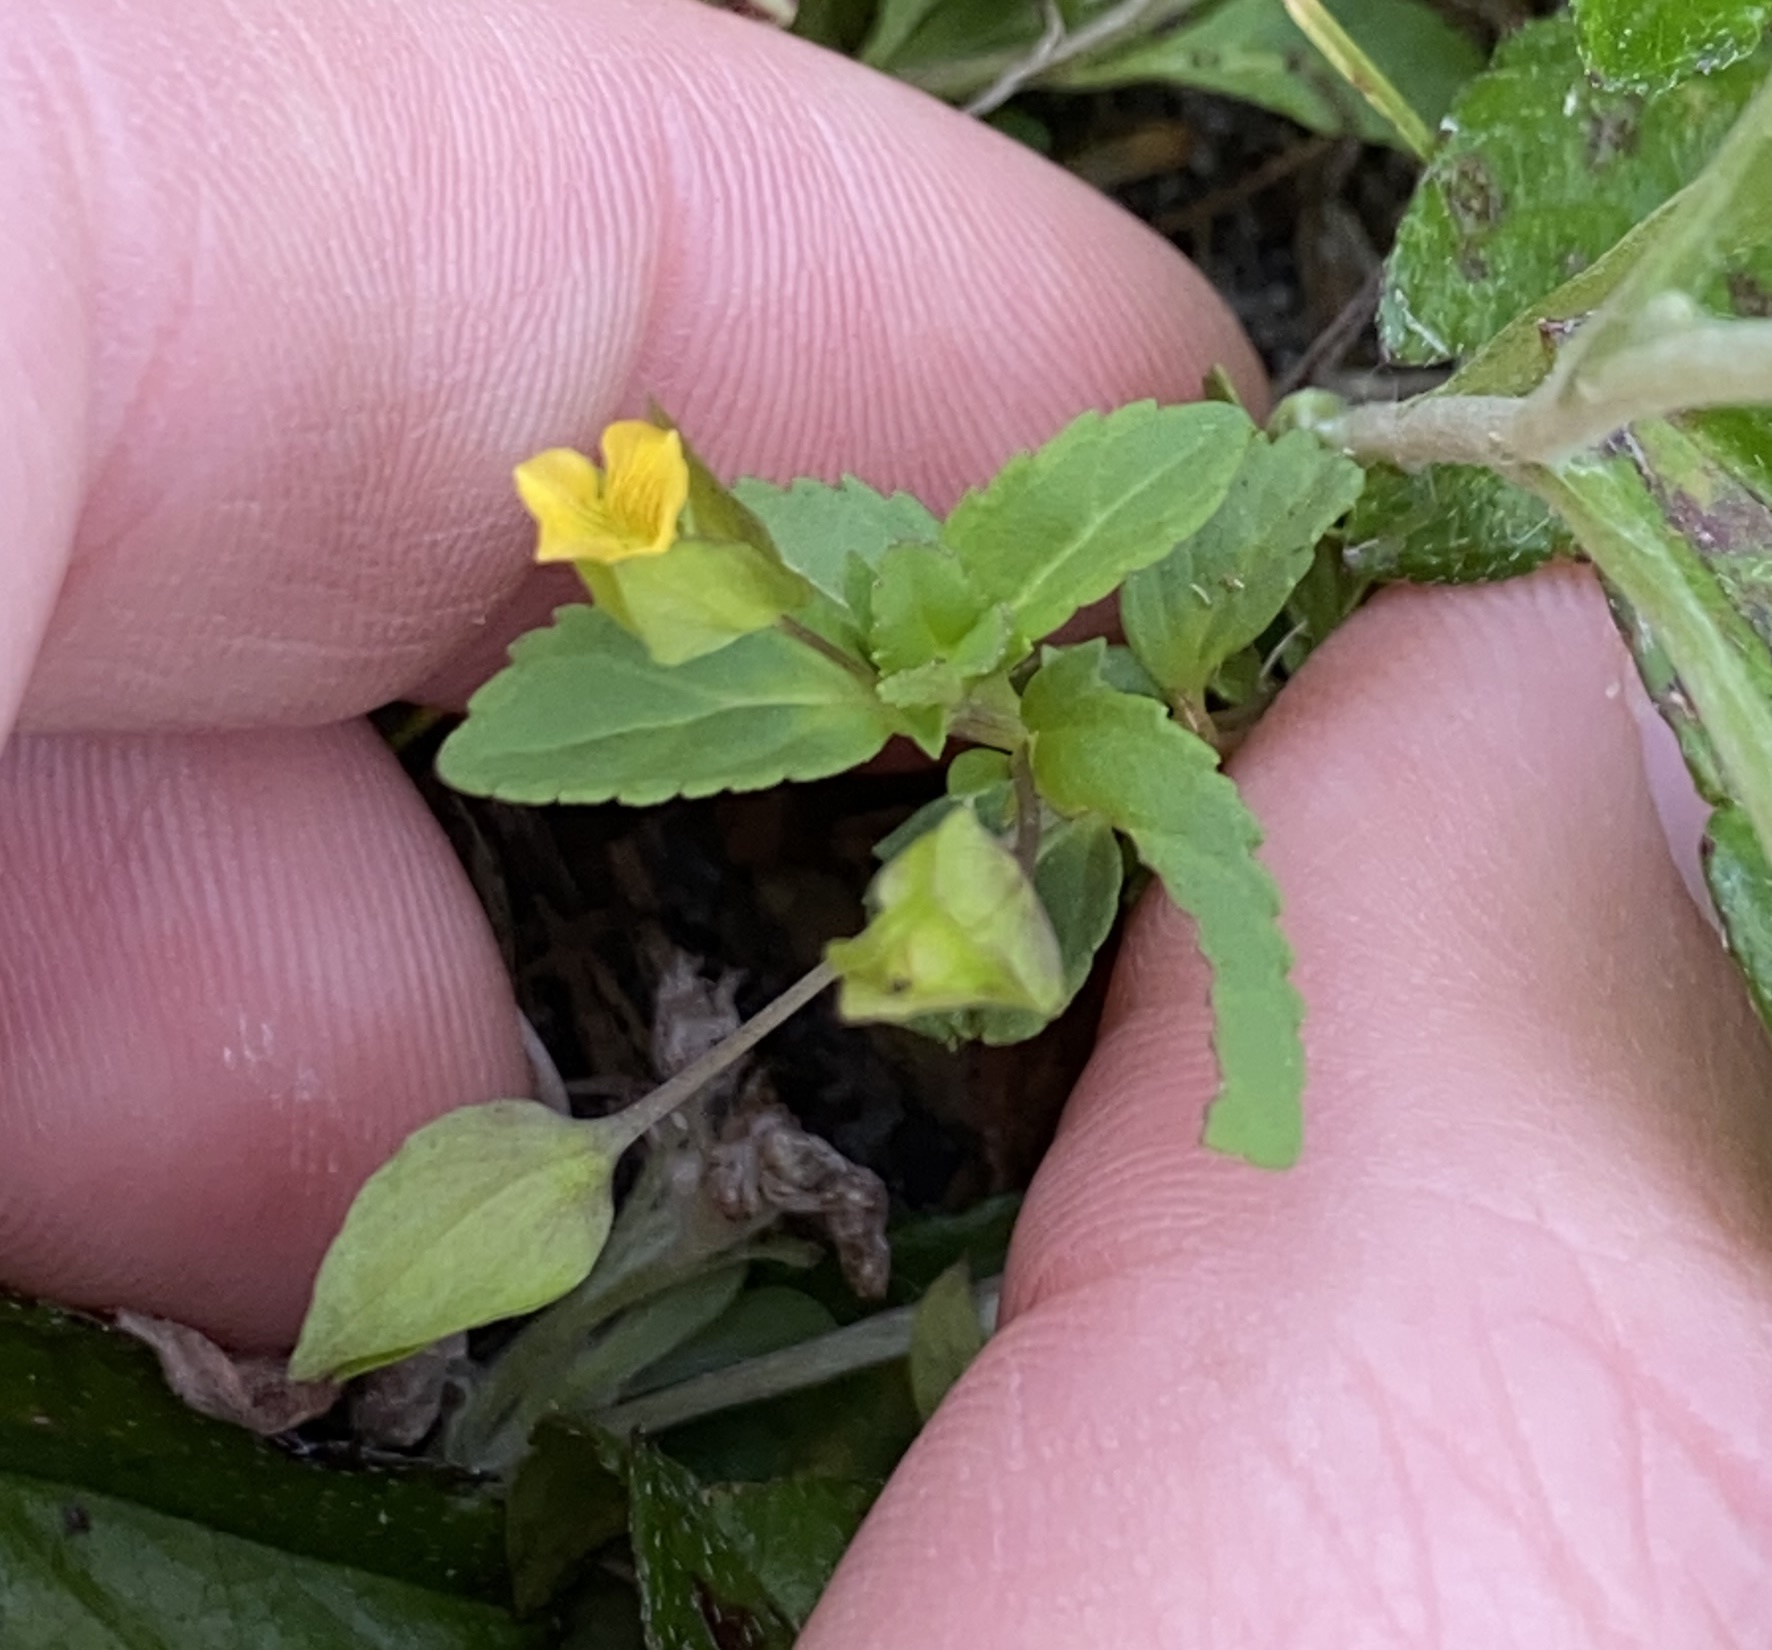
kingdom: Plantae
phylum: Tracheophyta
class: Magnoliopsida
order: Lamiales
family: Plantaginaceae
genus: Mecardonia
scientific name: Mecardonia procumbens
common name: Baby jump-up
